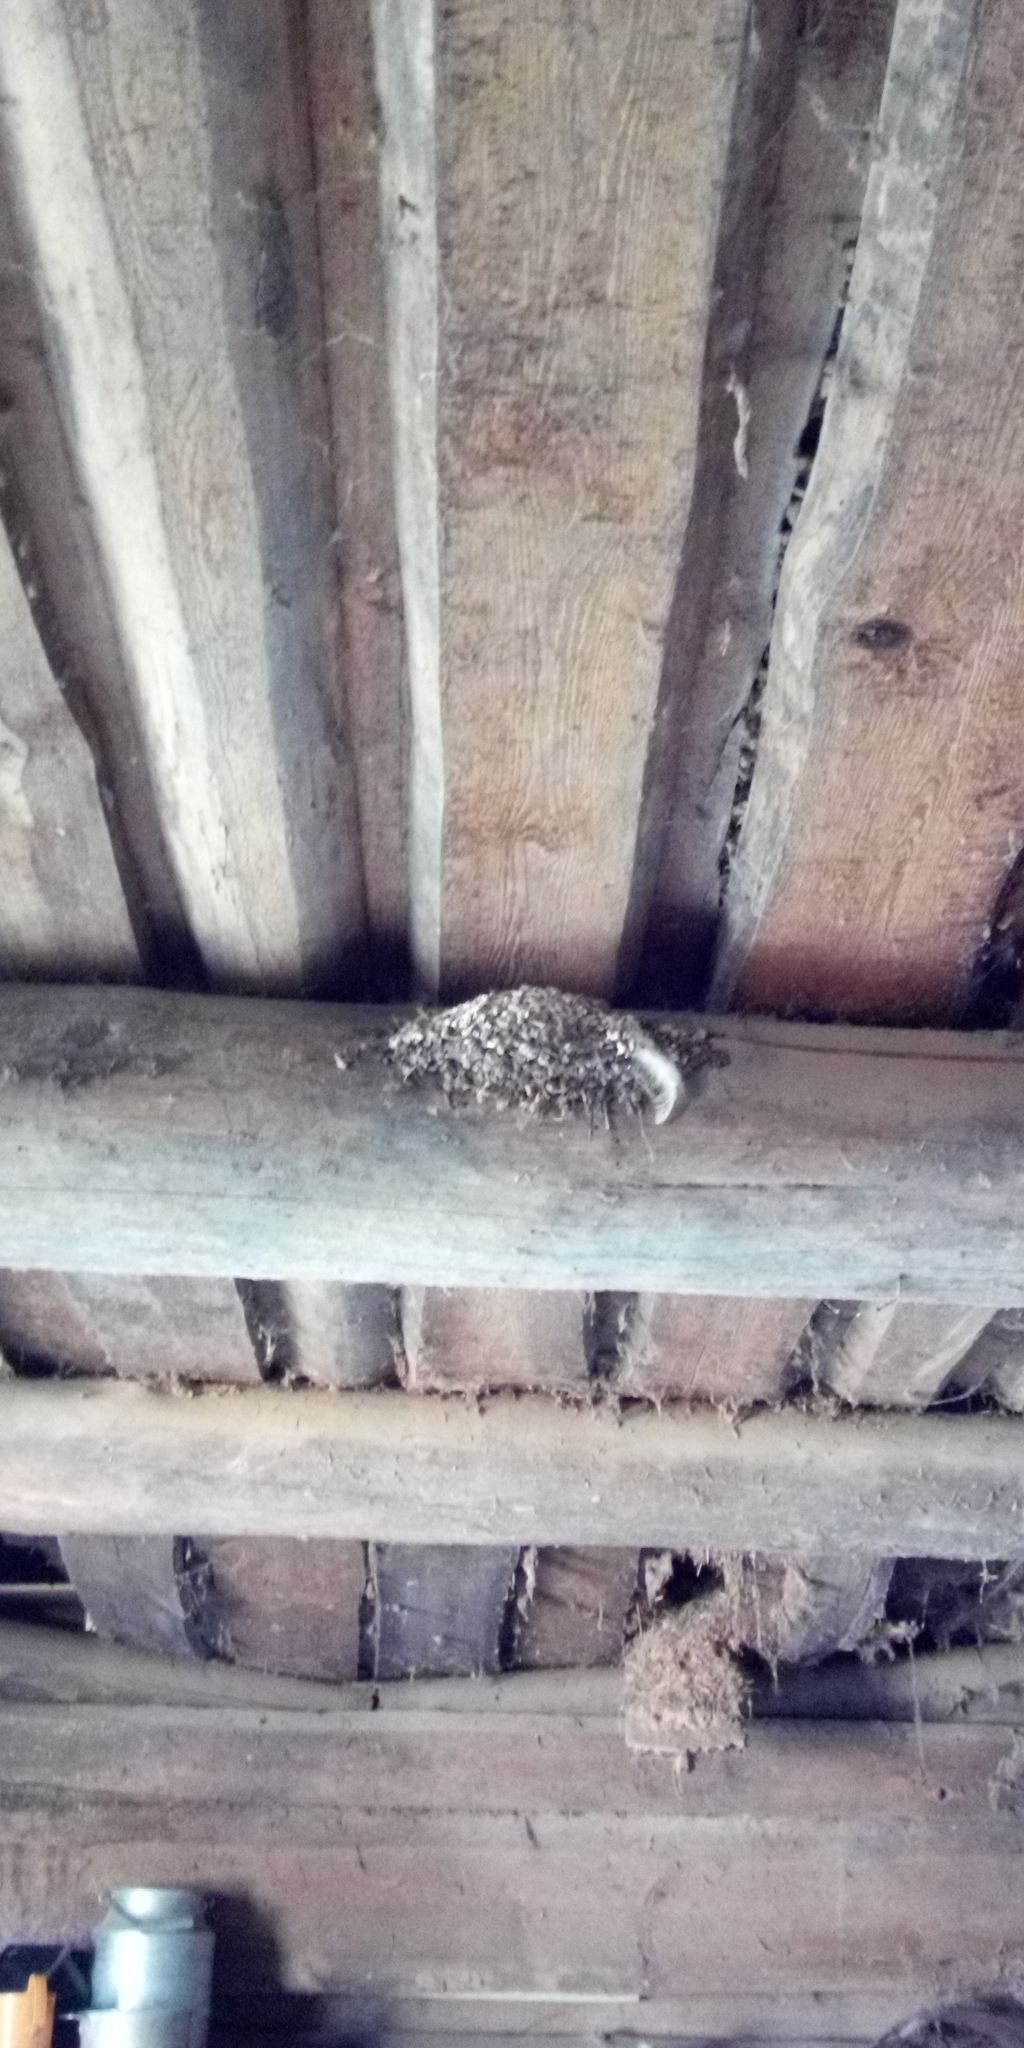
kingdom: Animalia
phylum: Chordata
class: Aves
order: Passeriformes
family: Hirundinidae
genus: Hirundo
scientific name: Hirundo rustica
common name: Barn swallow
